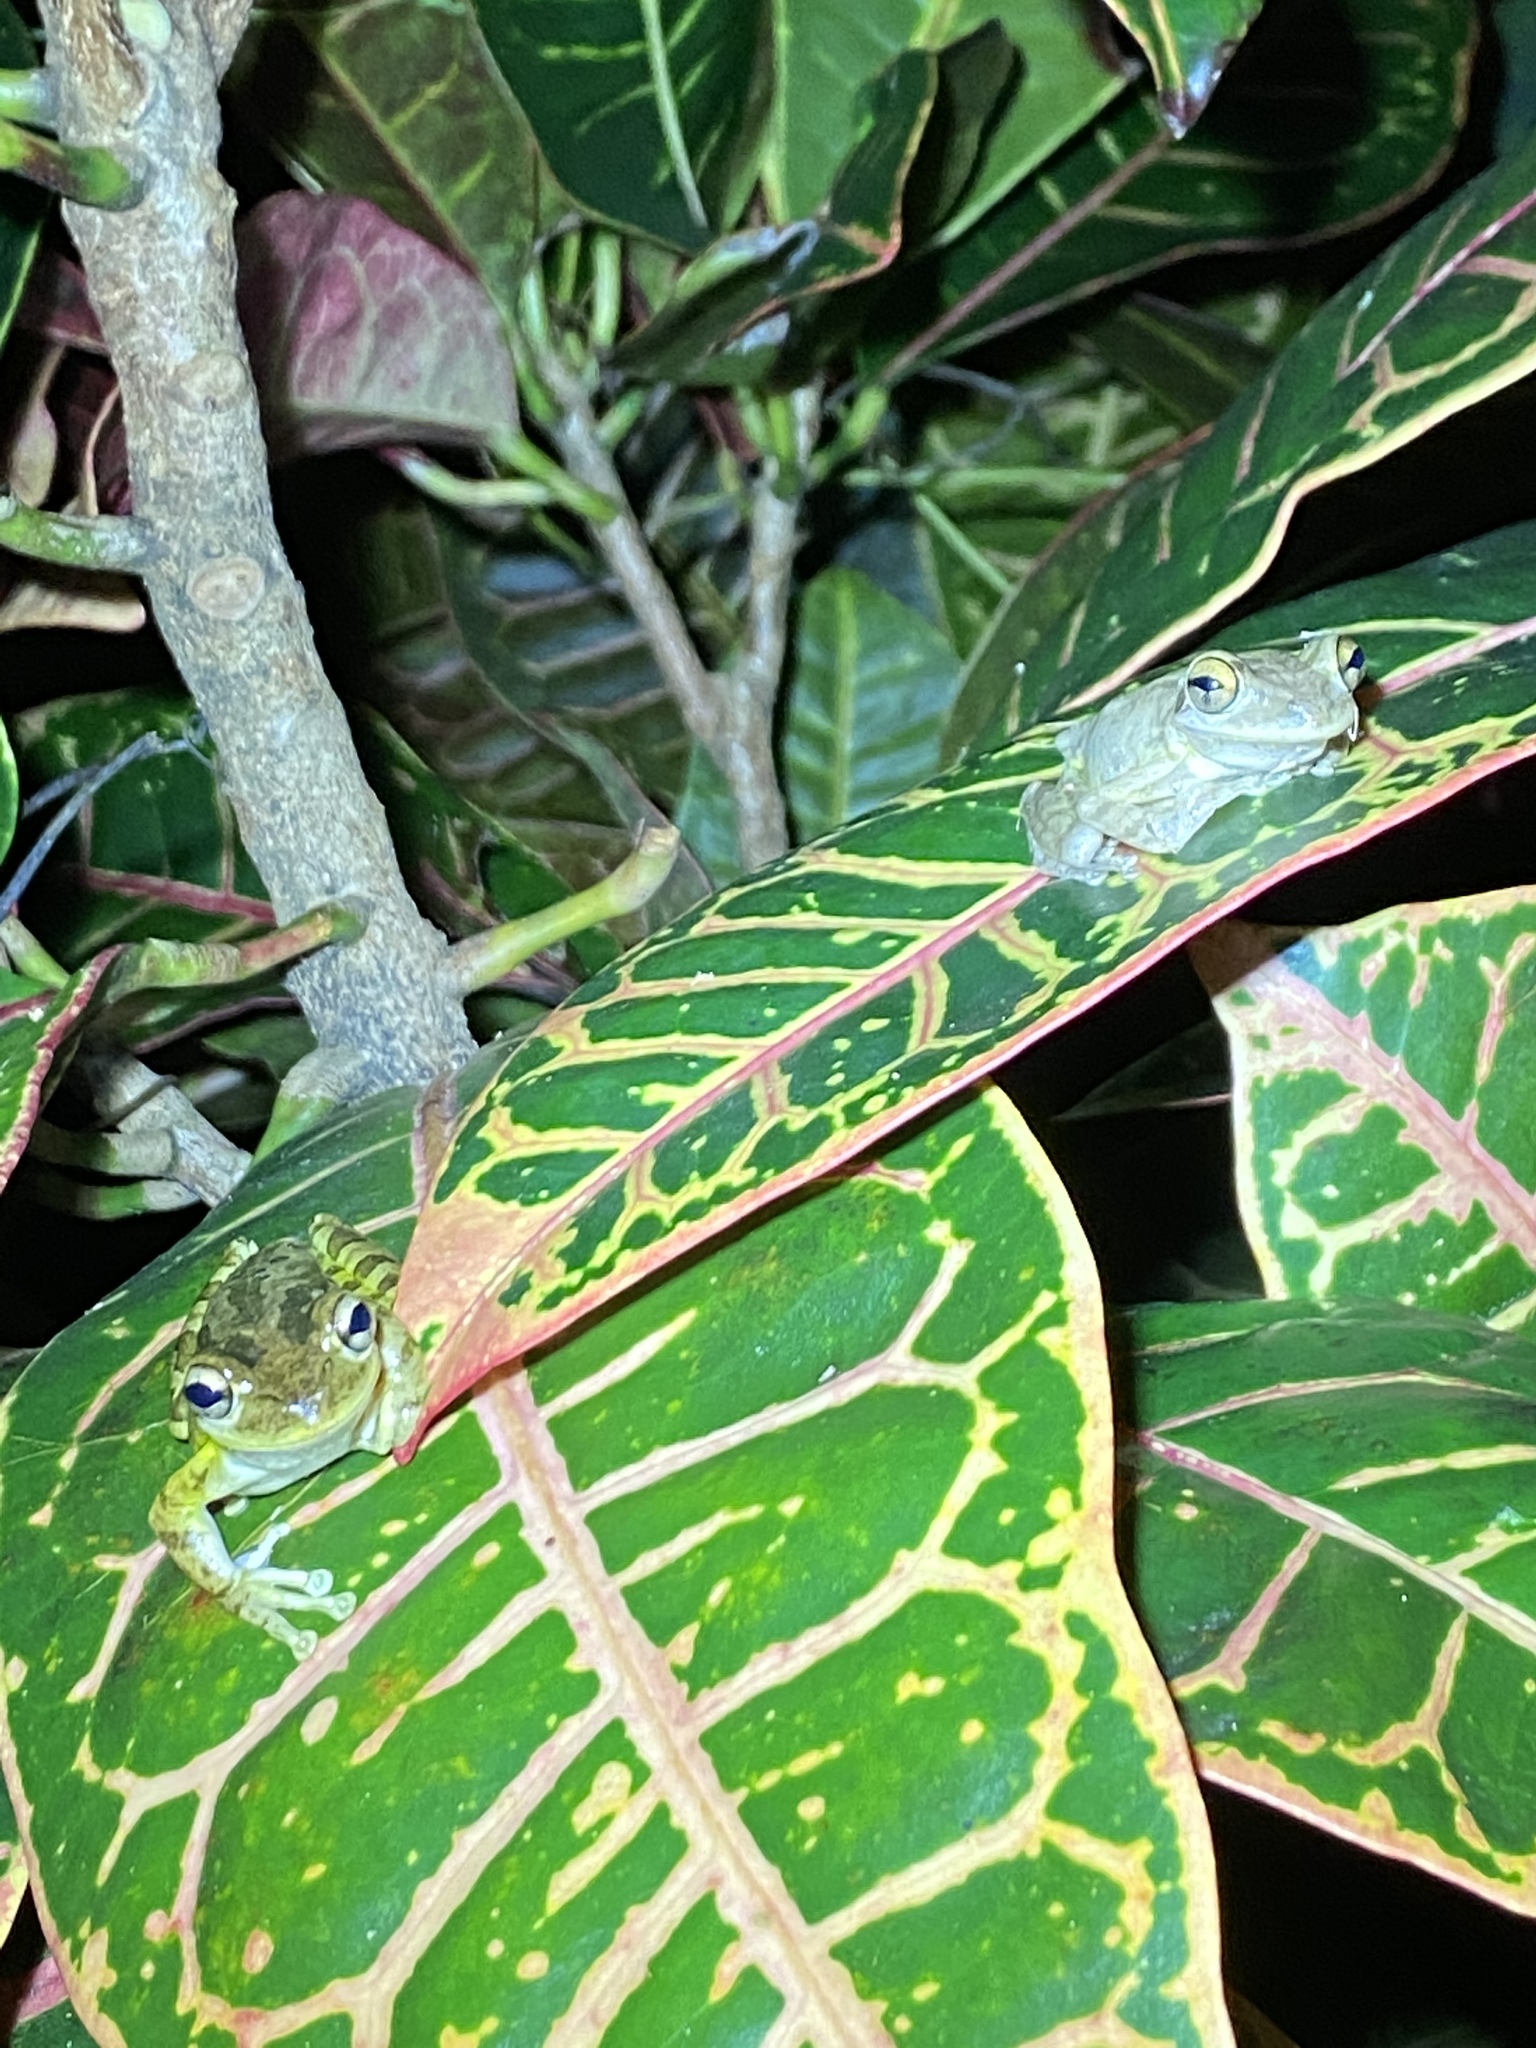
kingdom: Animalia
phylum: Chordata
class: Amphibia
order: Anura
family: Hylidae
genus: Osteopilus
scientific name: Osteopilus septentrionalis
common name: Cuban treefrog
